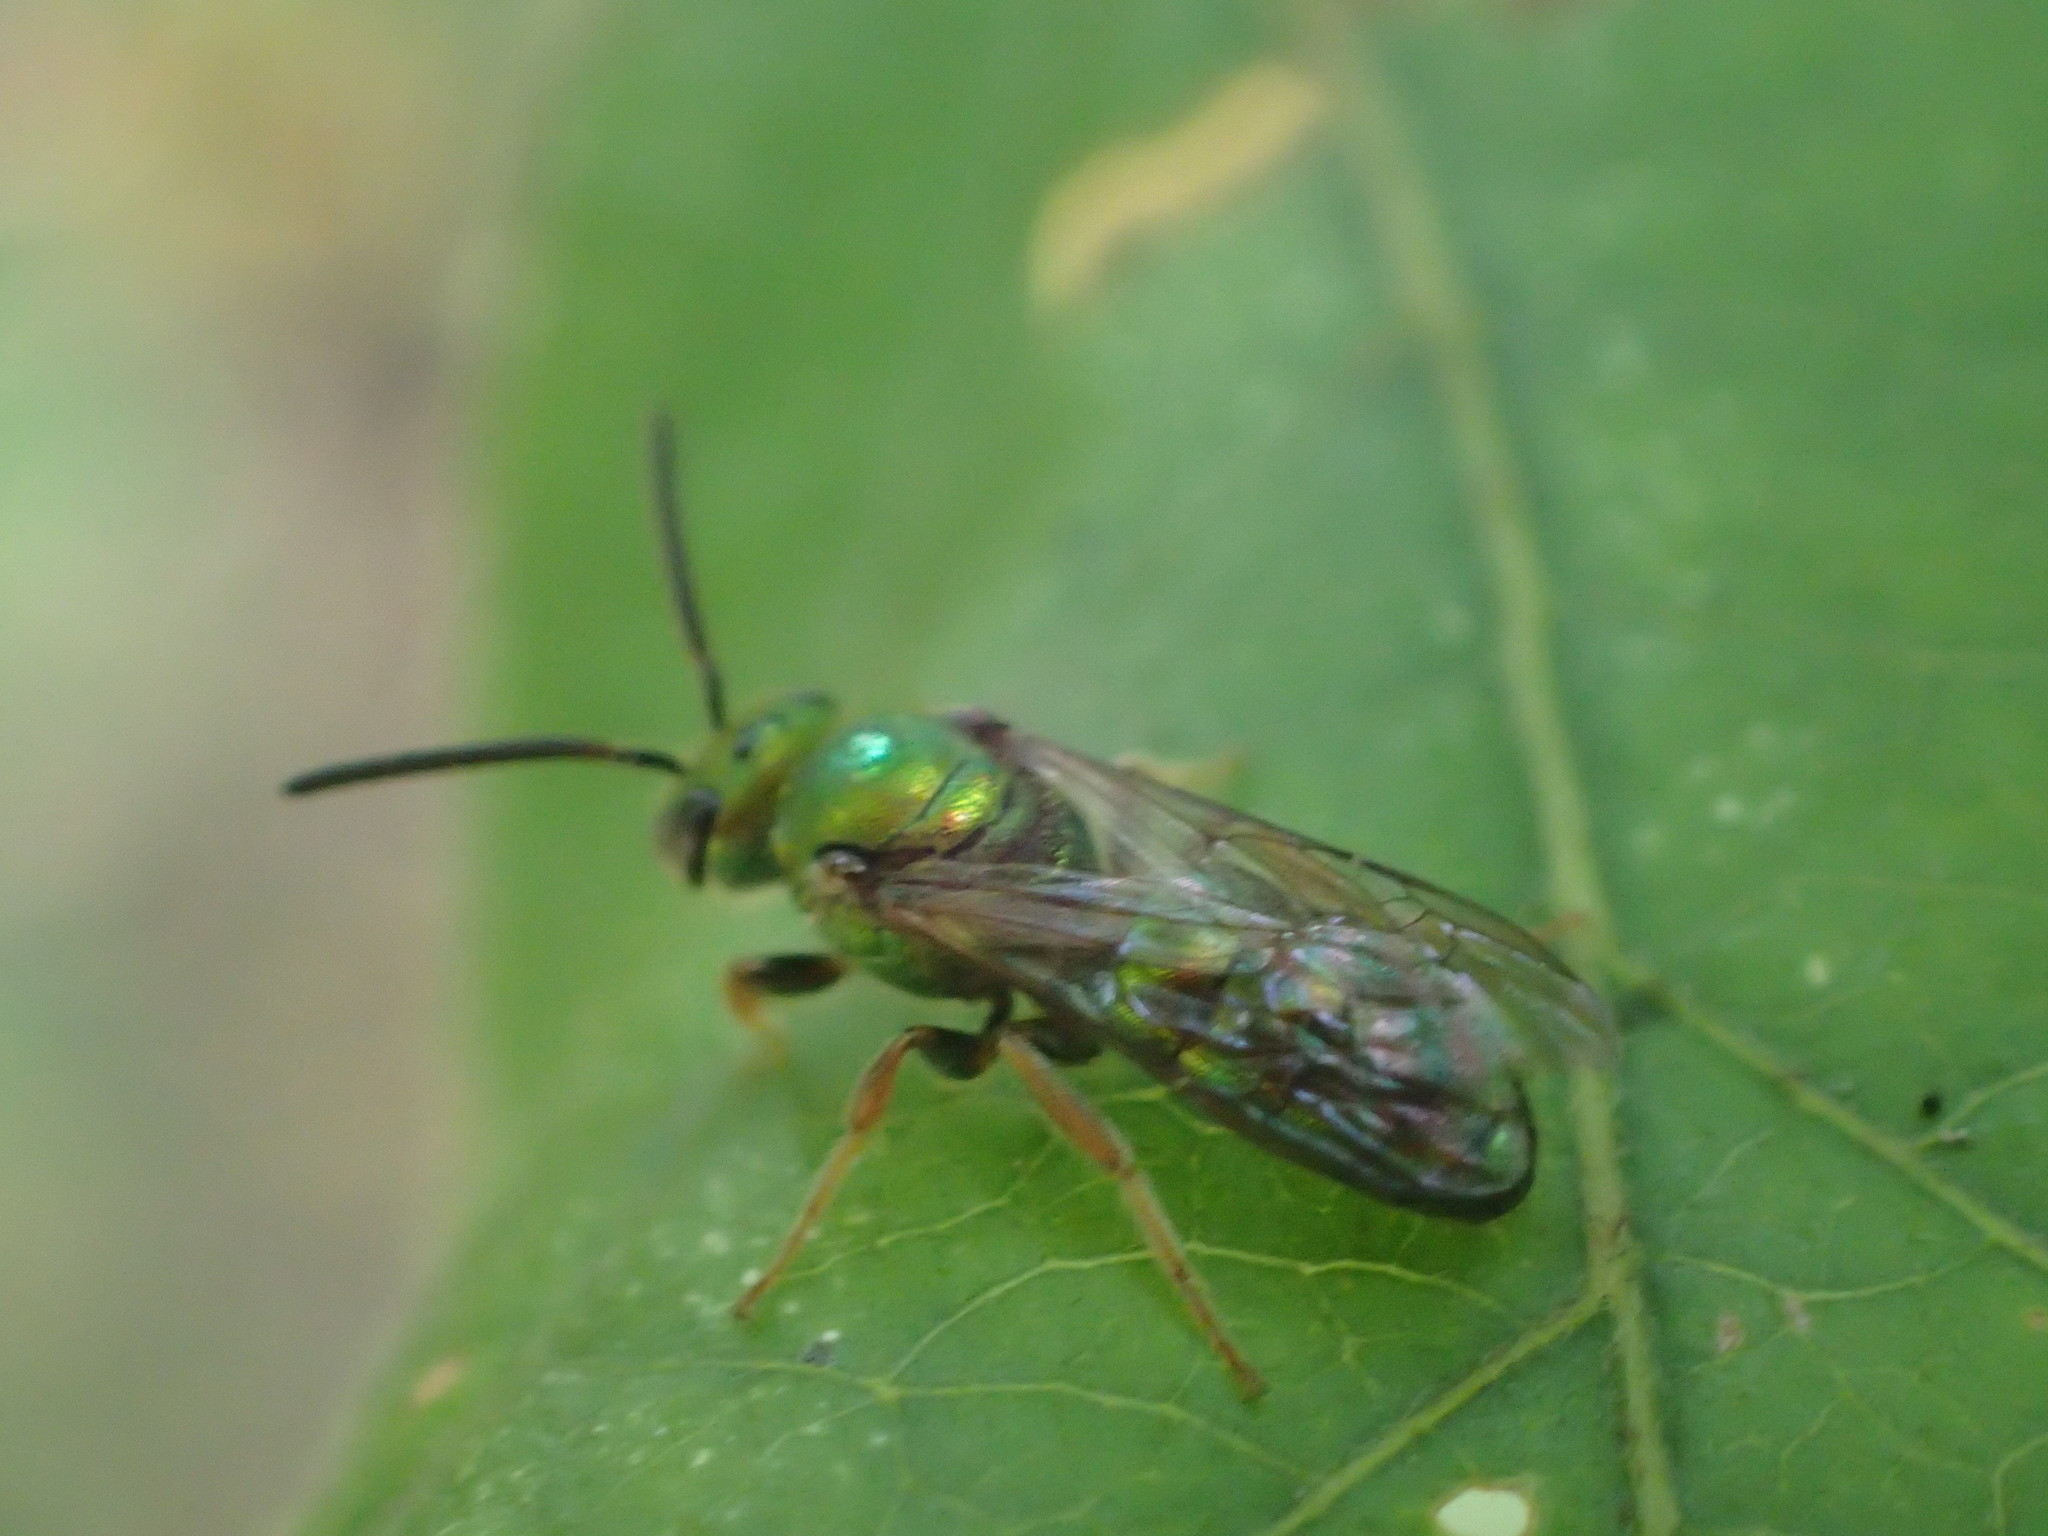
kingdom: Animalia
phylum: Arthropoda
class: Insecta
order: Hymenoptera
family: Halictidae
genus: Augochlora
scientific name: Augochlora pura
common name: Pure green sweat bee
